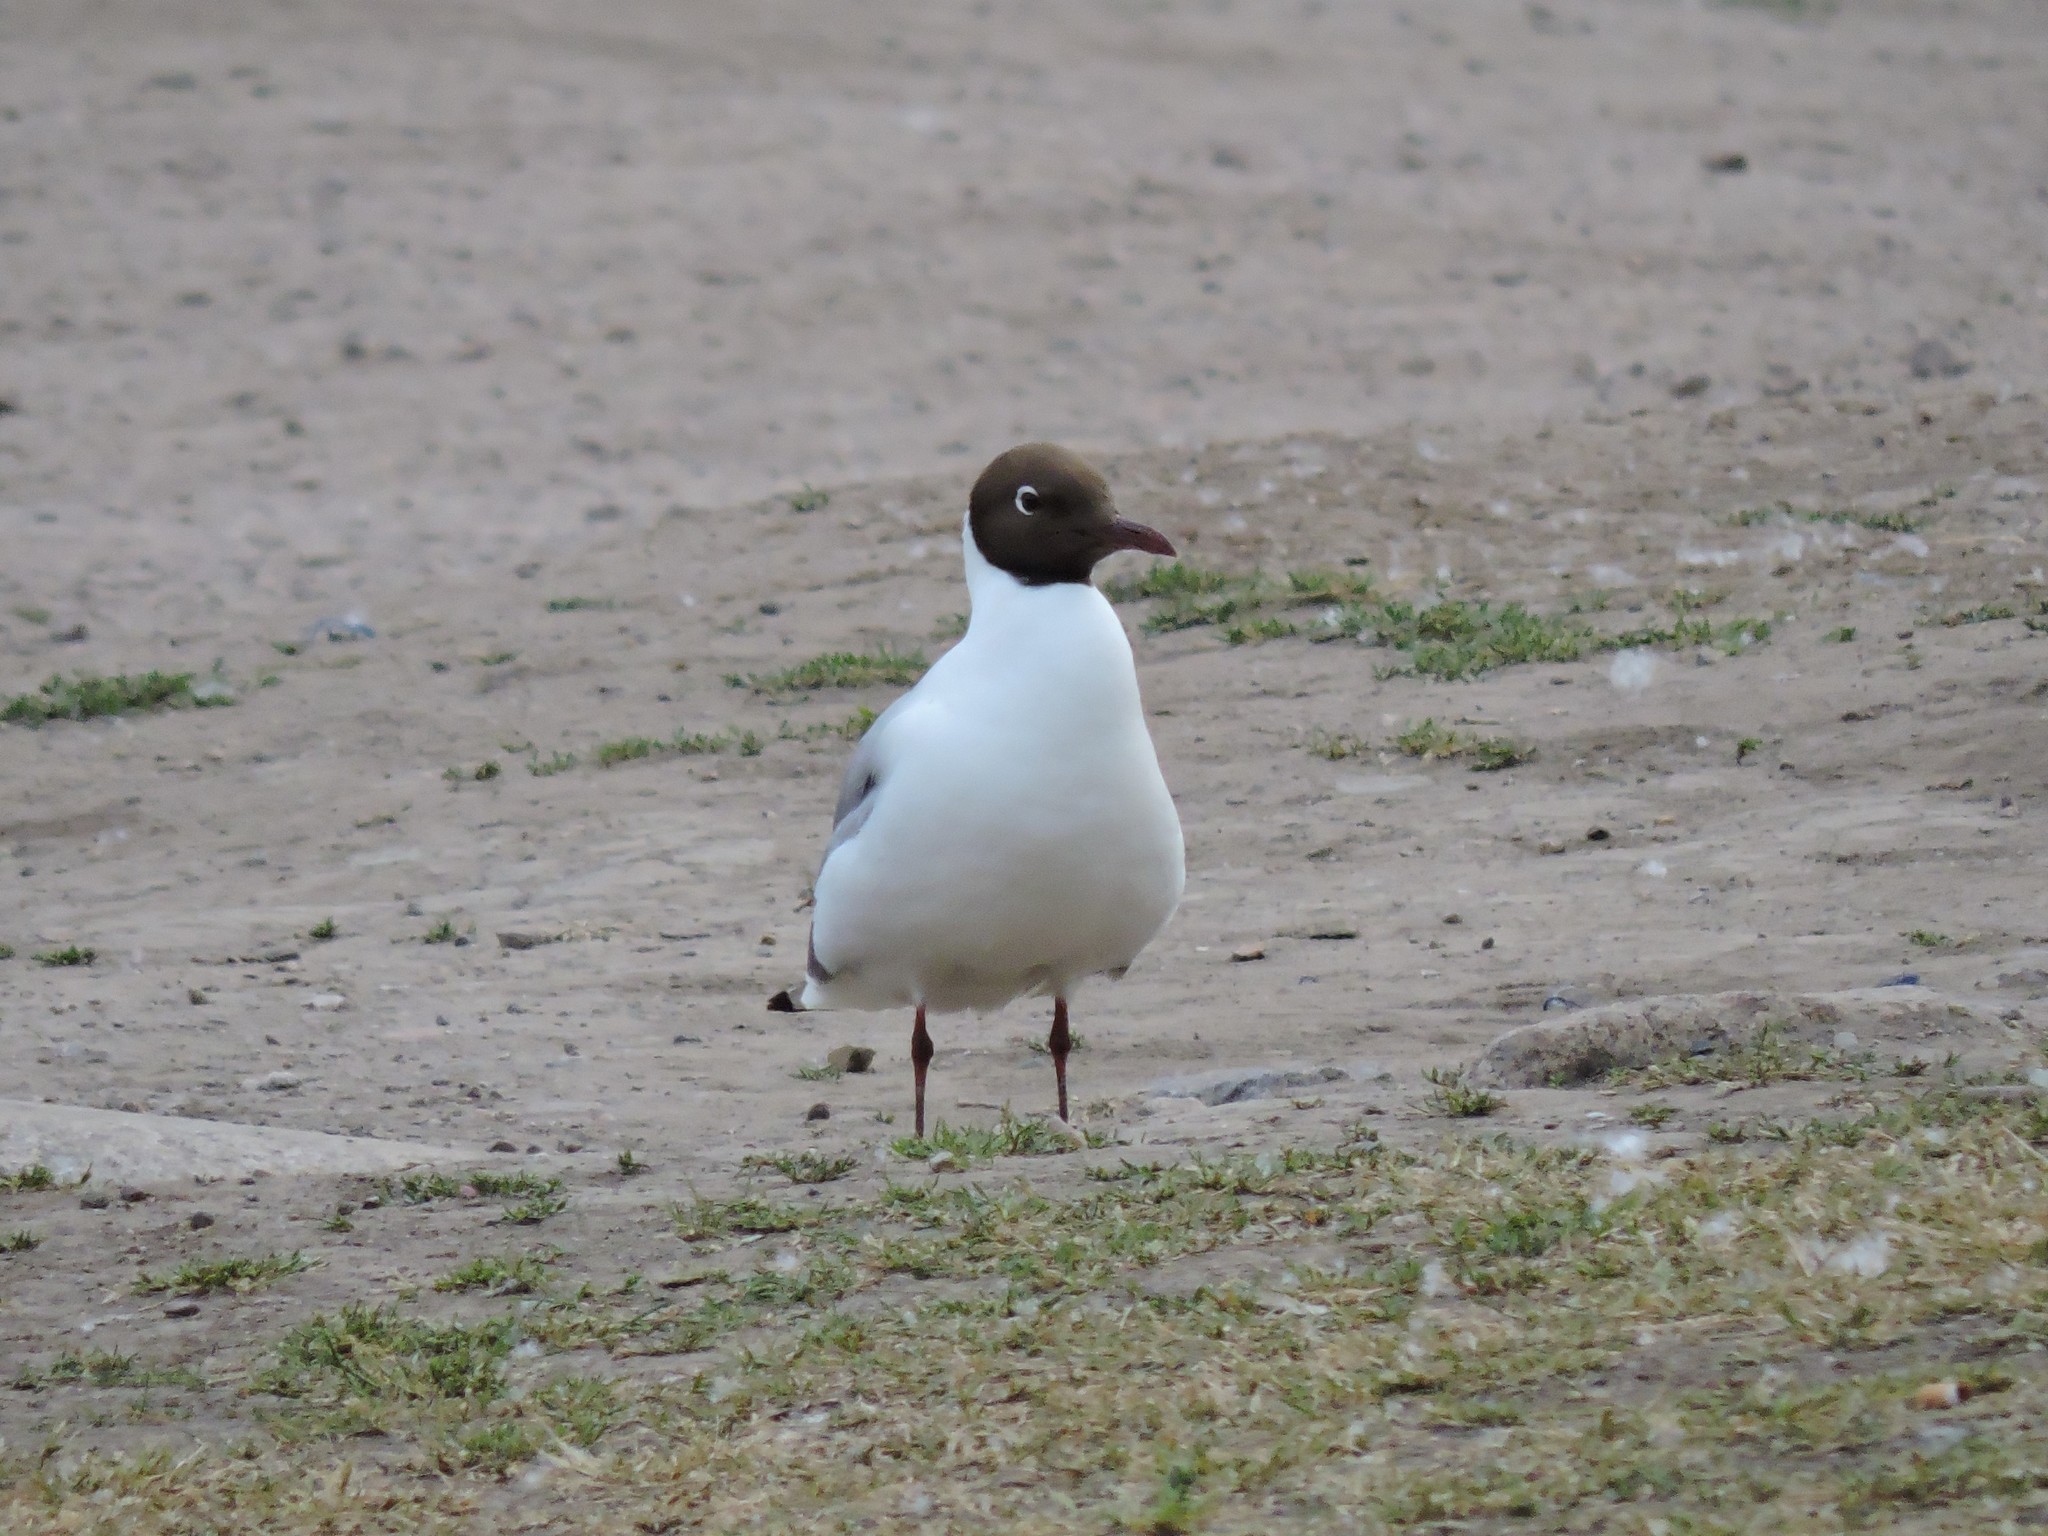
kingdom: Animalia
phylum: Chordata
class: Aves
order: Charadriiformes
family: Laridae
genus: Chroicocephalus
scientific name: Chroicocephalus ridibundus
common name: Black-headed gull
